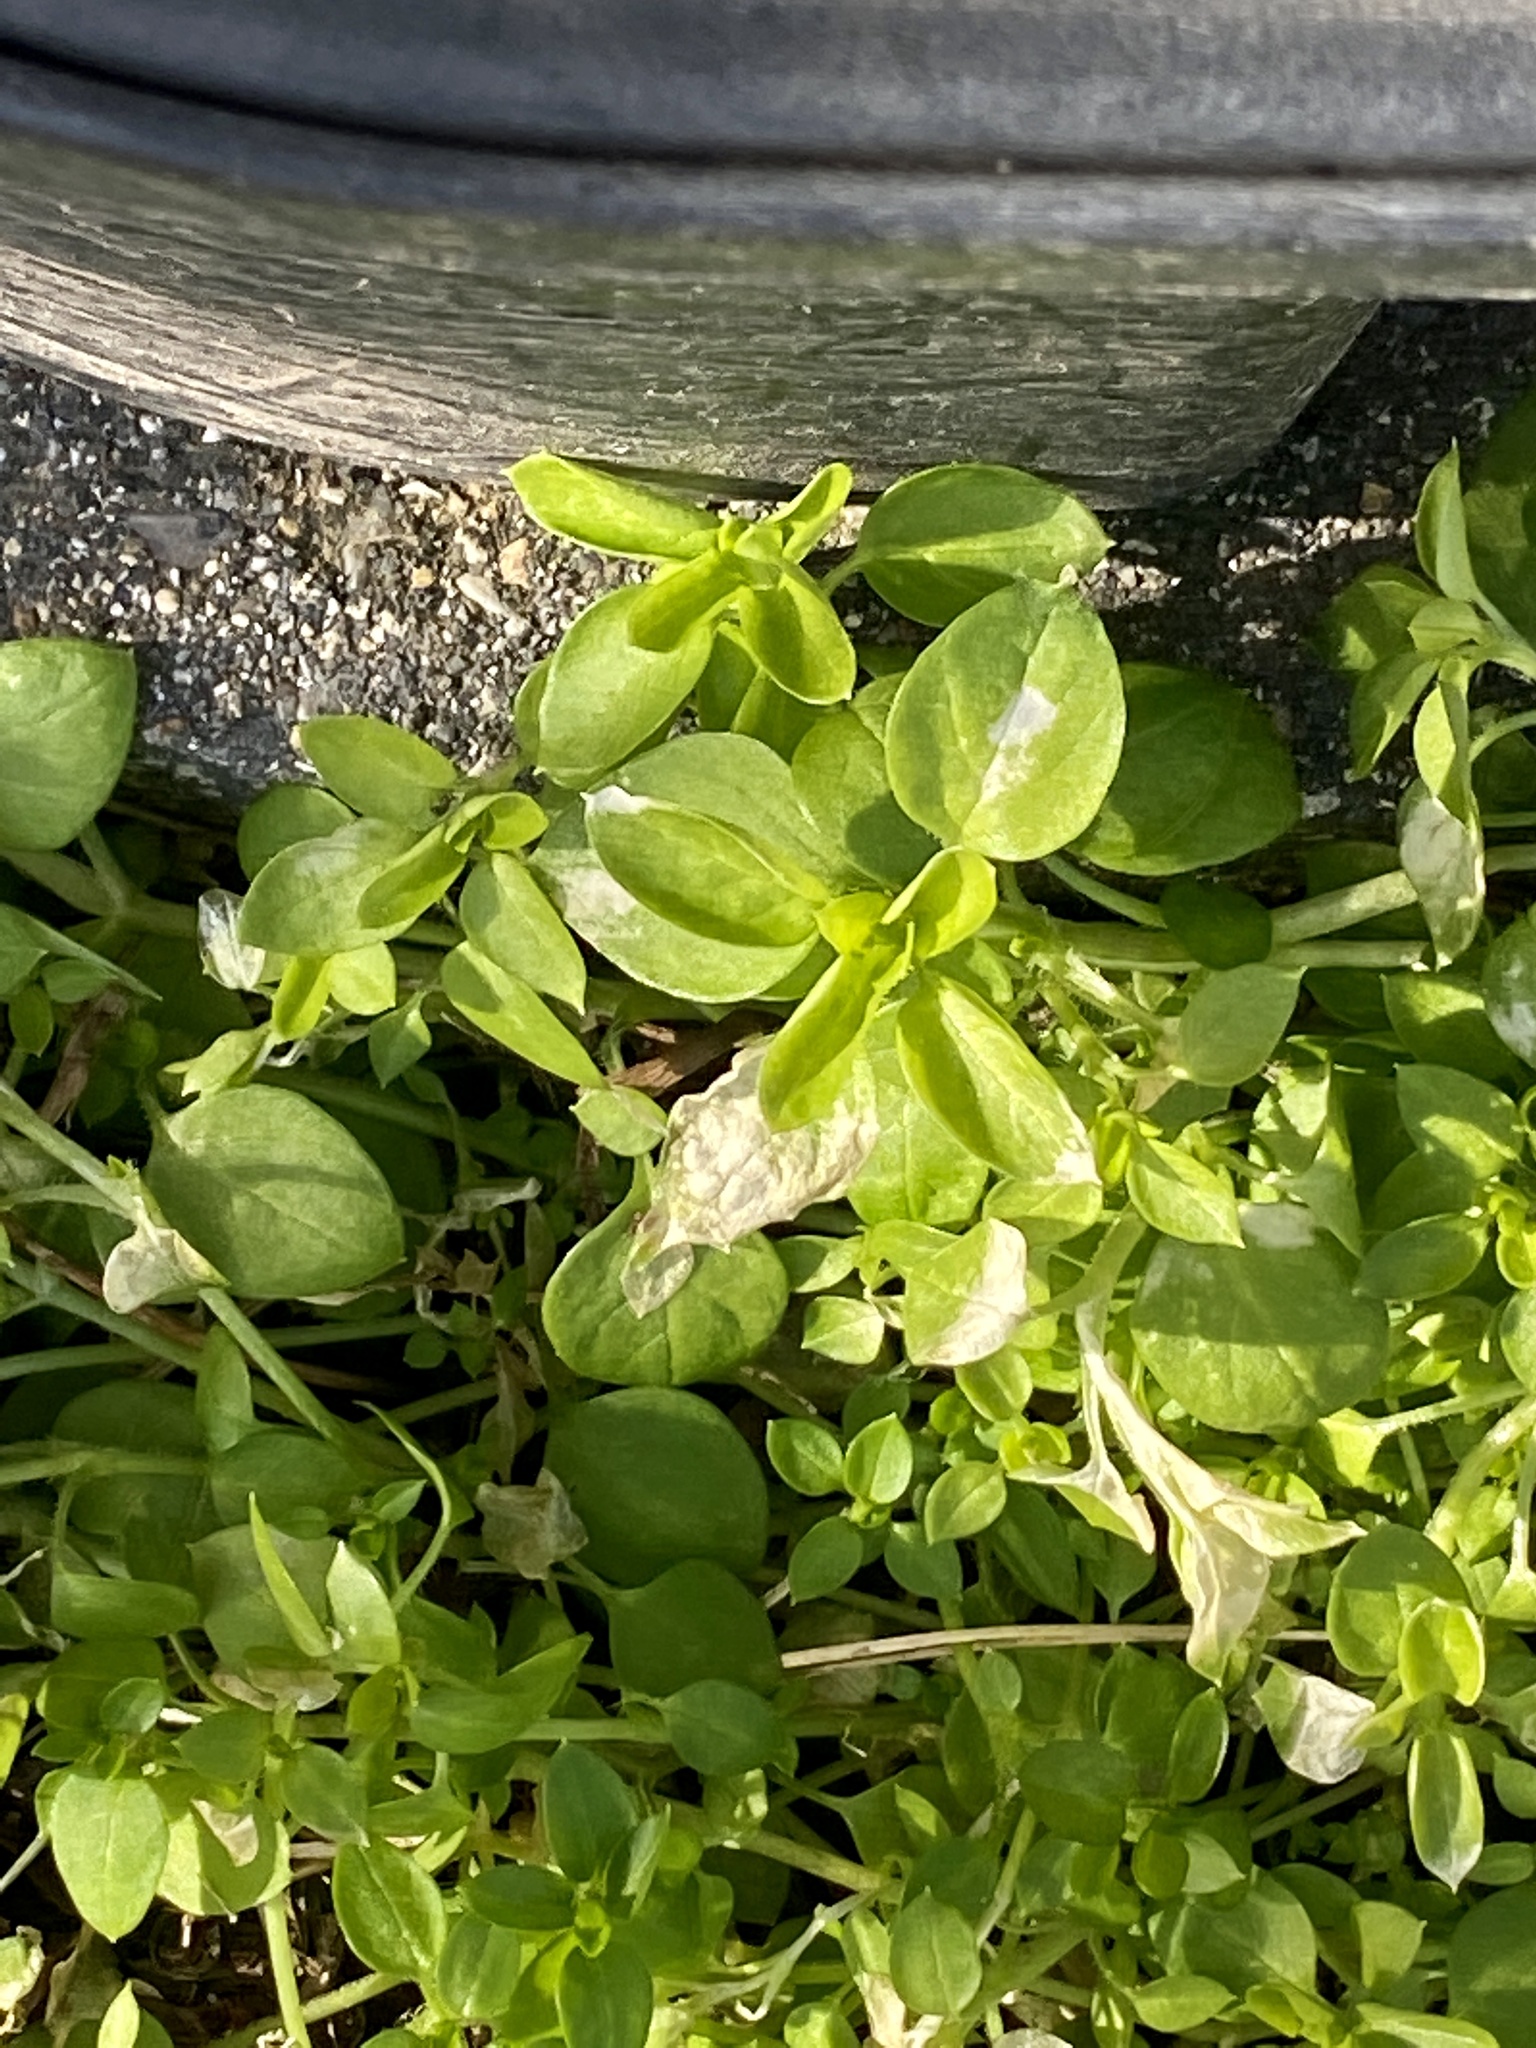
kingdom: Plantae
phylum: Tracheophyta
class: Magnoliopsida
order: Caryophyllales
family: Caryophyllaceae
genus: Stellaria
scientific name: Stellaria media
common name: Common chickweed
